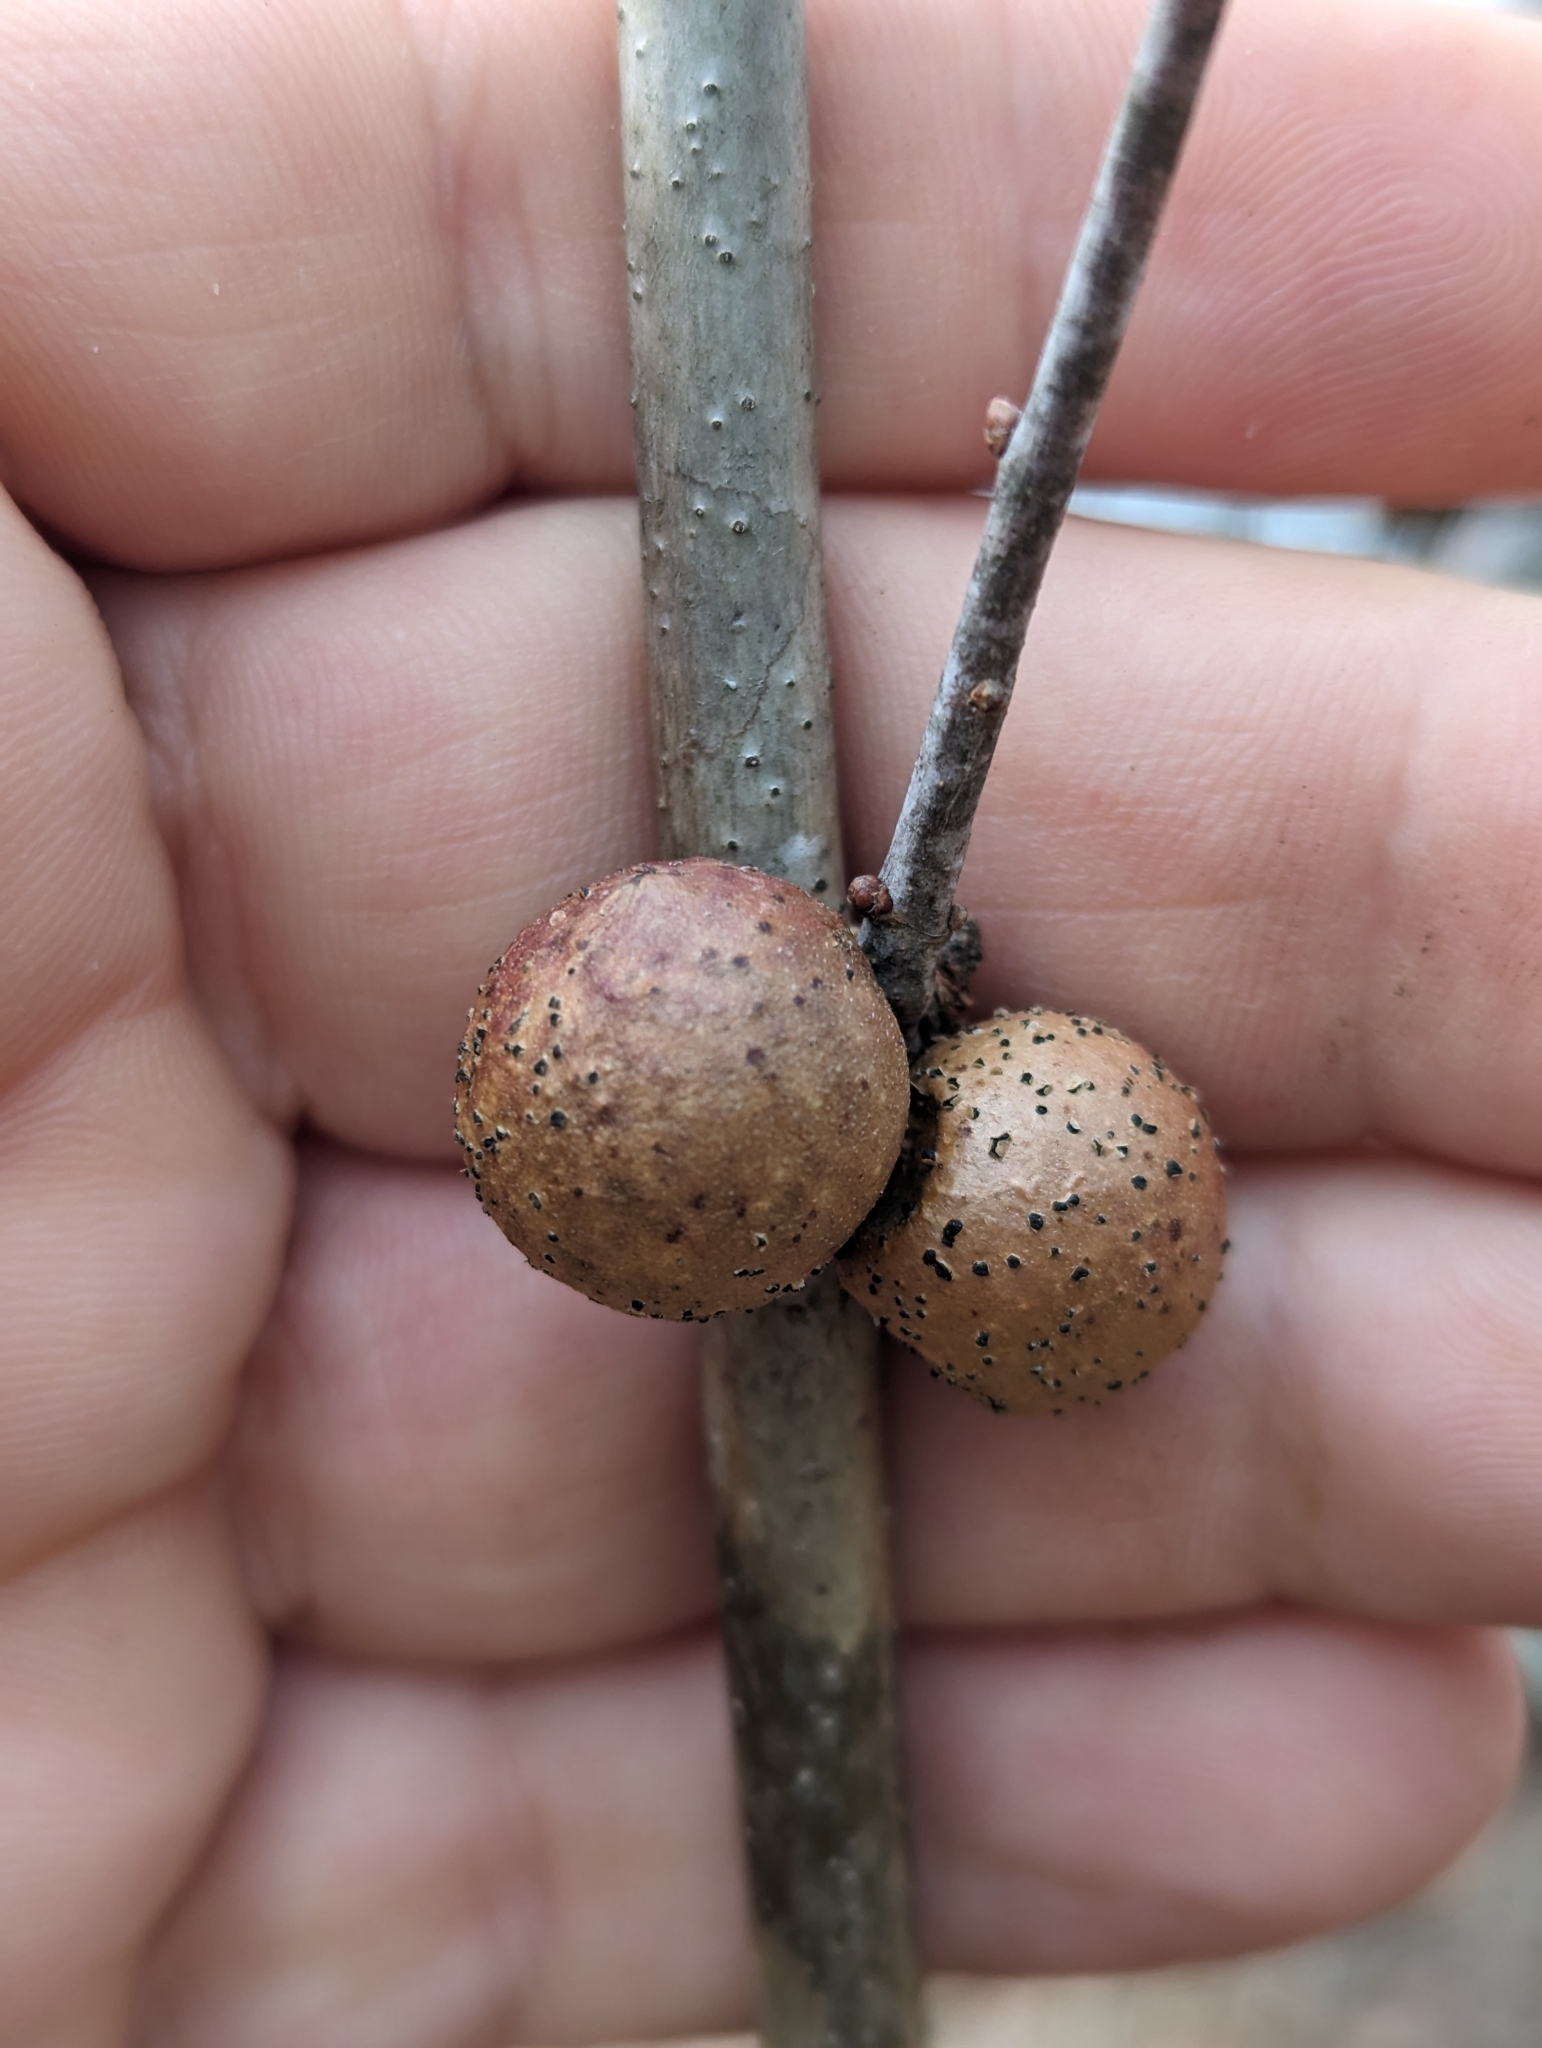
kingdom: Animalia
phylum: Arthropoda
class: Insecta
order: Hymenoptera
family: Cynipidae
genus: Disholcaspis
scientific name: Disholcaspis quercusglobulus
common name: Round bullet gall wasp
